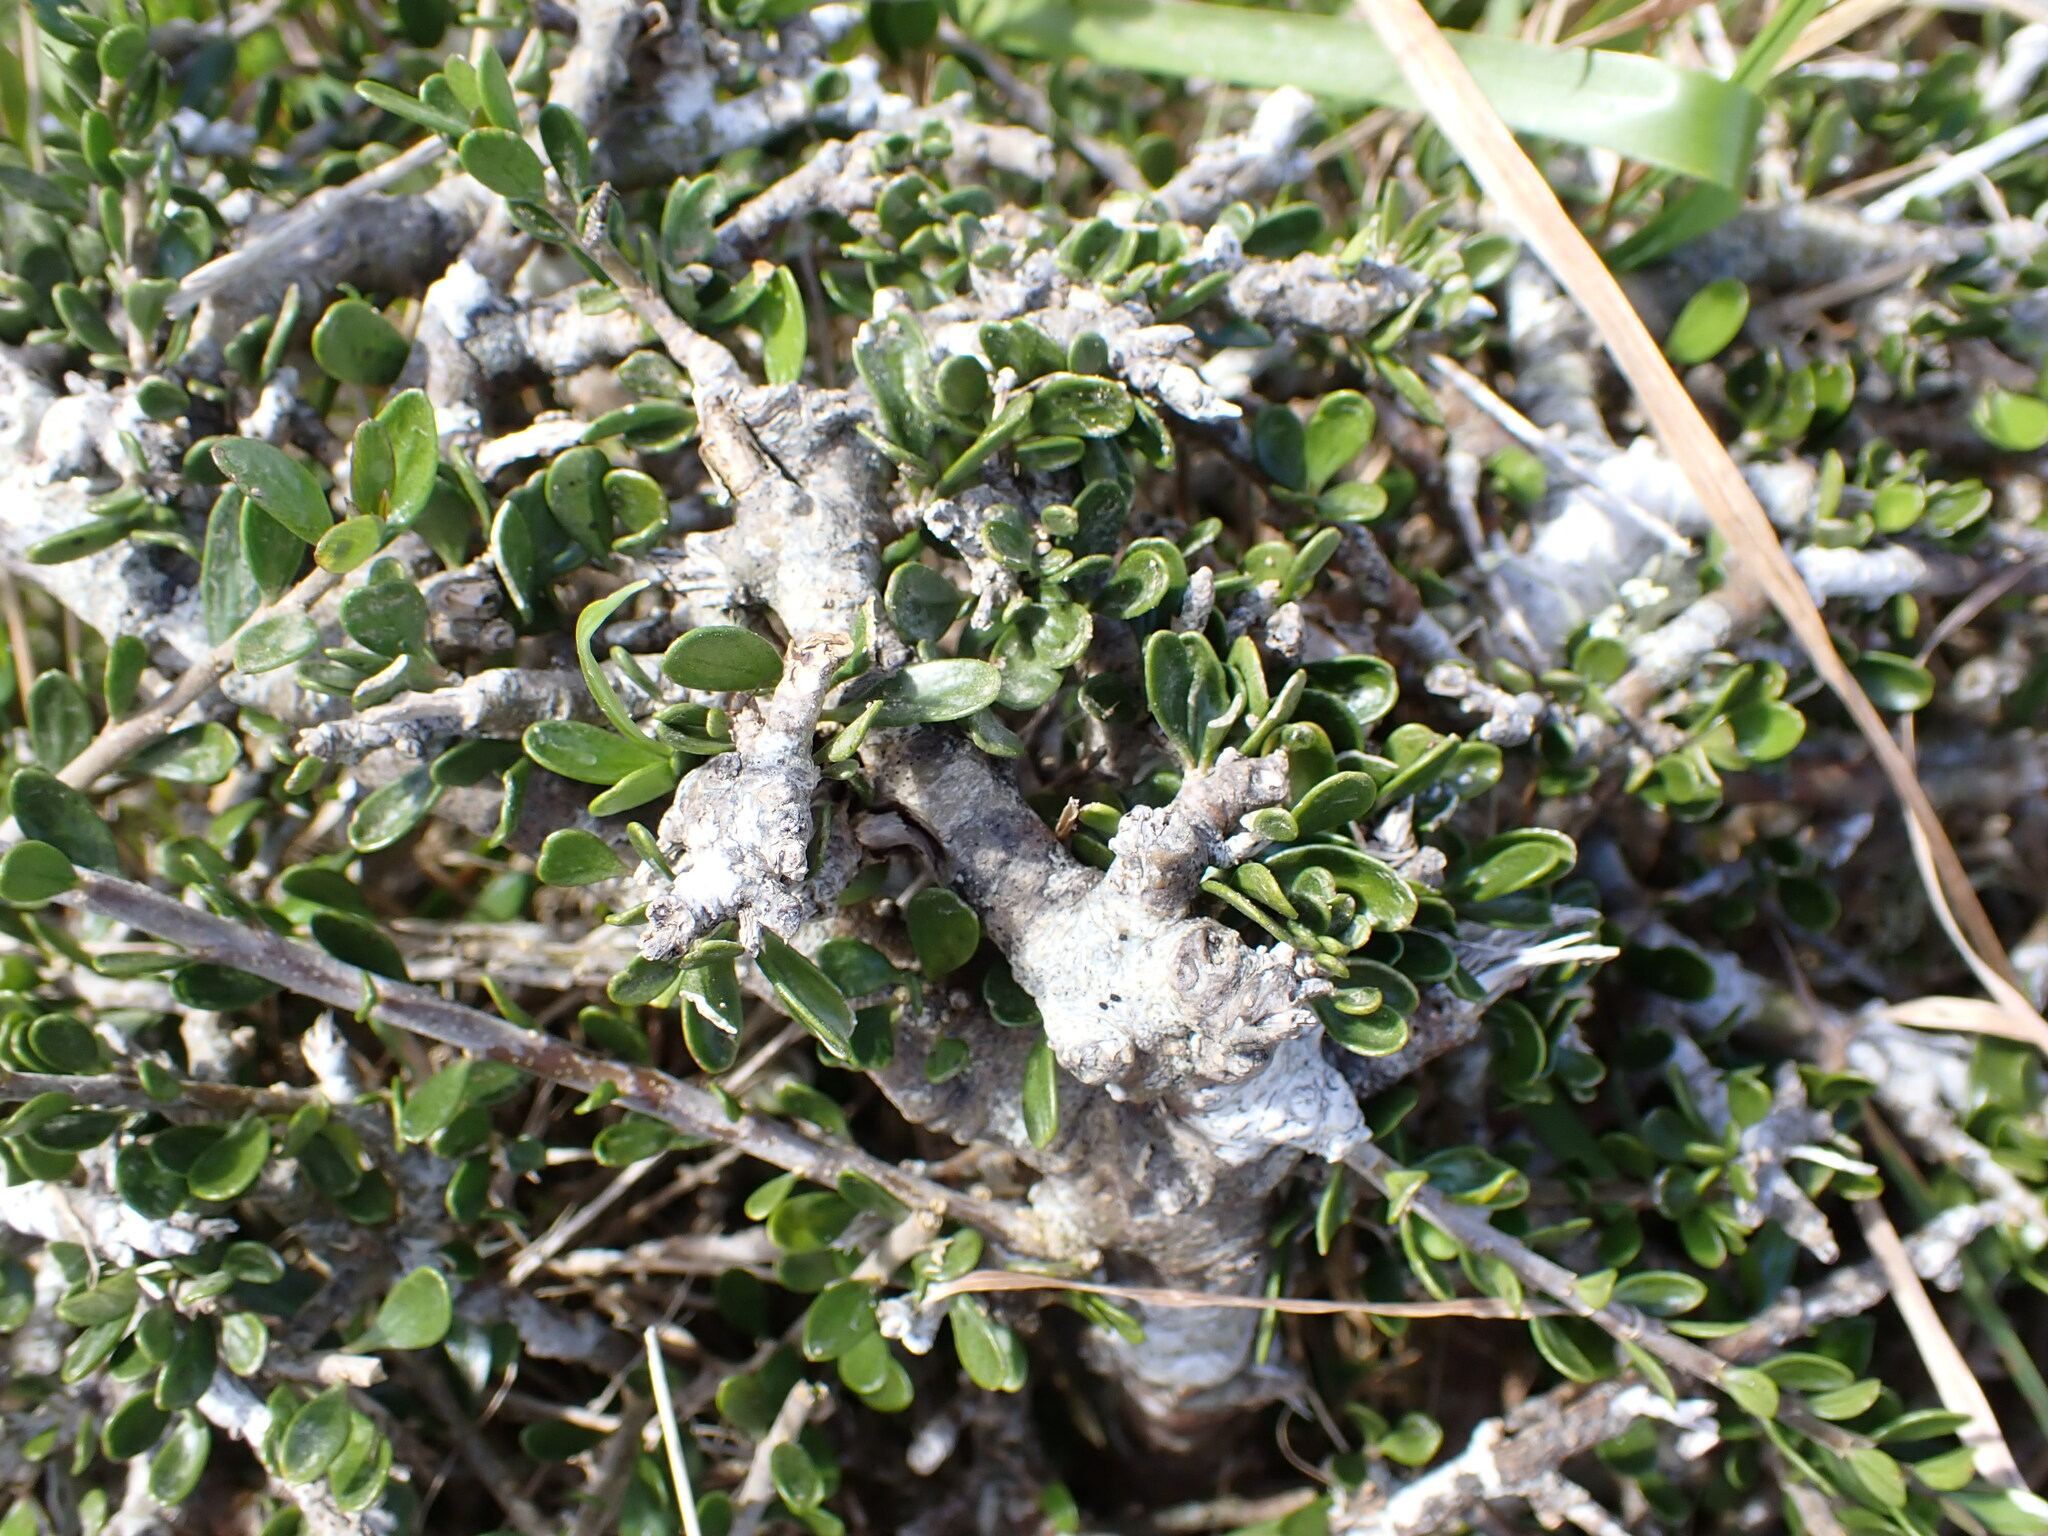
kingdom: Plantae
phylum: Tracheophyta
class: Magnoliopsida
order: Malpighiales
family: Violaceae
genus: Melicytus
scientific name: Melicytus crassifolius
